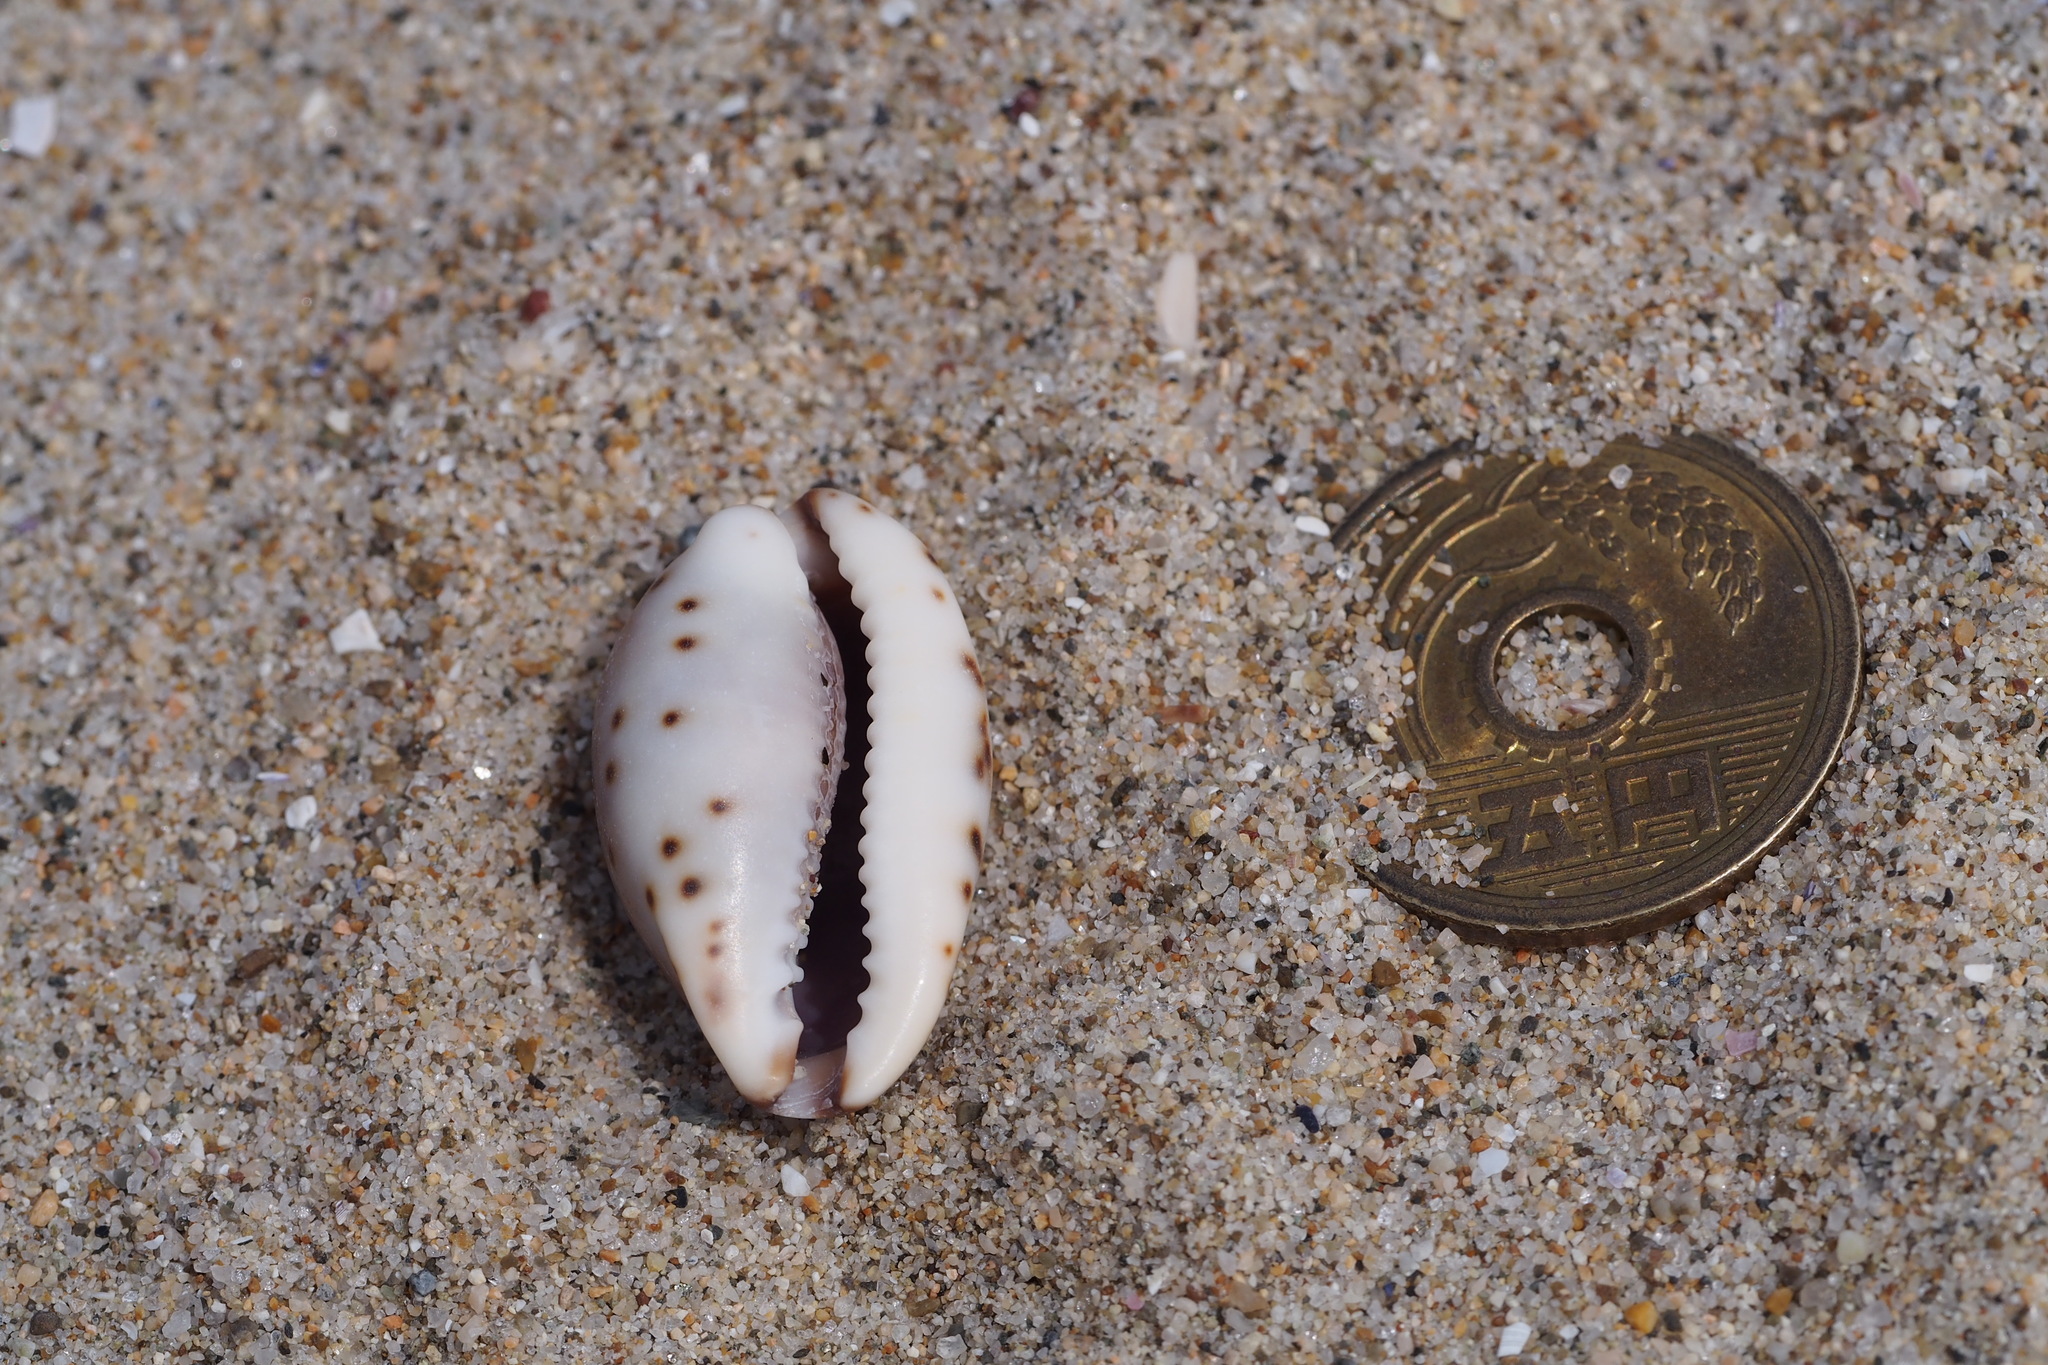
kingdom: Animalia
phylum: Mollusca
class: Gastropoda
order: Littorinimorpha
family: Cypraeidae
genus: Purpuradusta
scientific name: Purpuradusta gracilis
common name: Graceful cowrie
